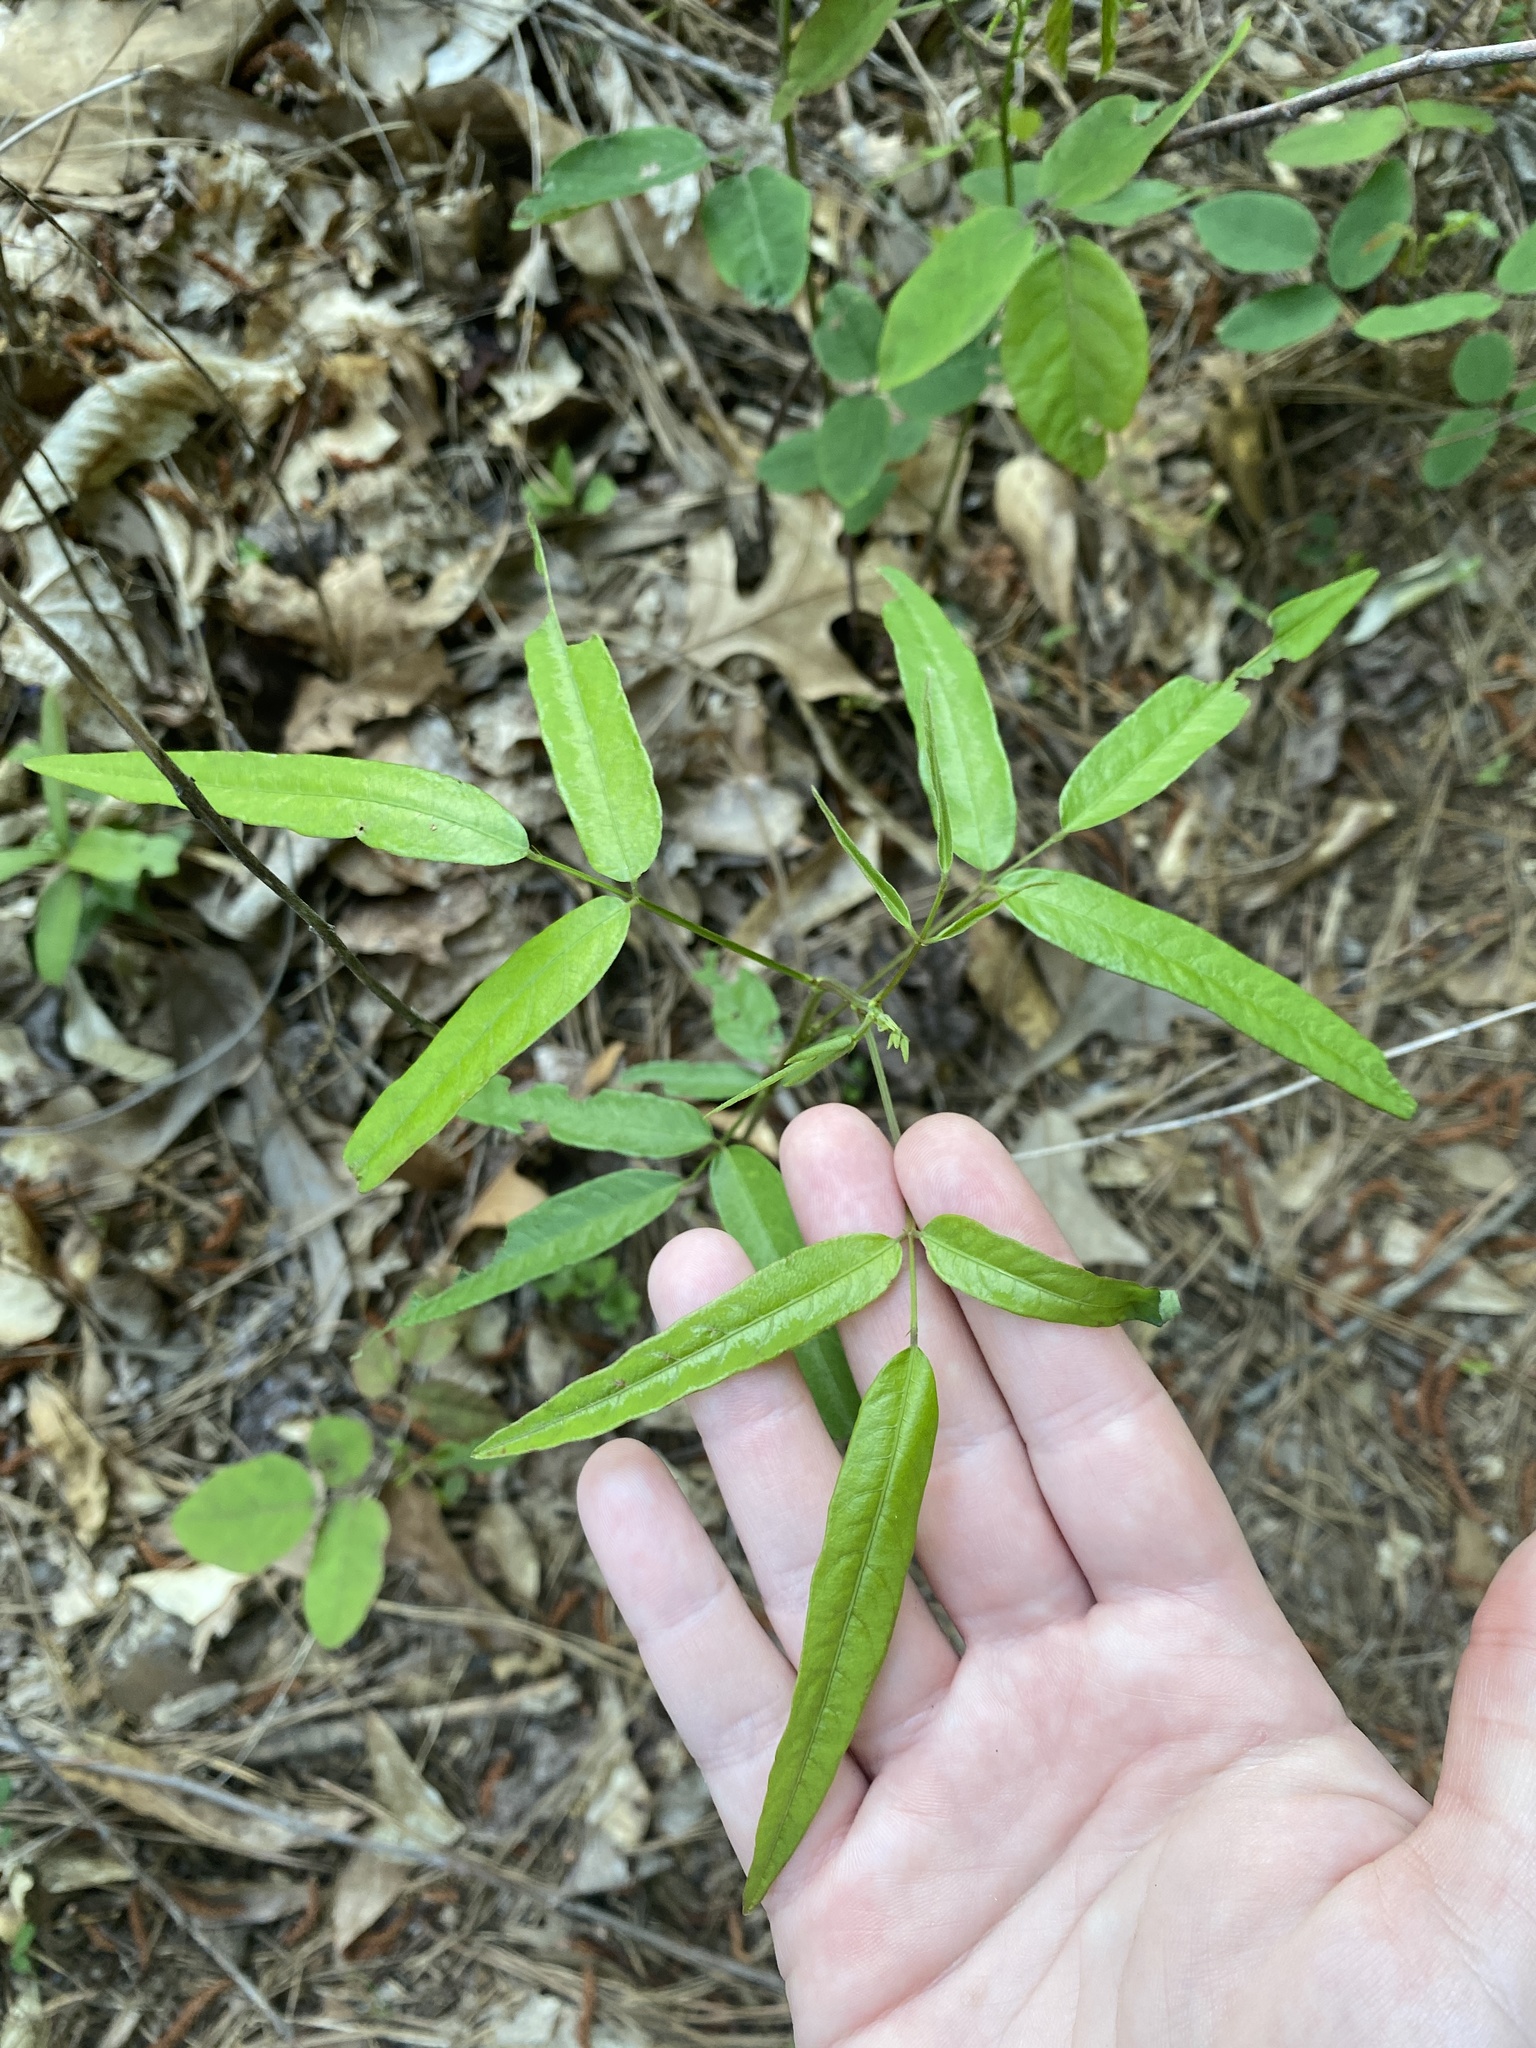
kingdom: Plantae
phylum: Tracheophyta
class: Magnoliopsida
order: Fabales
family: Fabaceae
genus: Desmodium
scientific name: Desmodium paniculatum
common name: Panicled tick-clover
